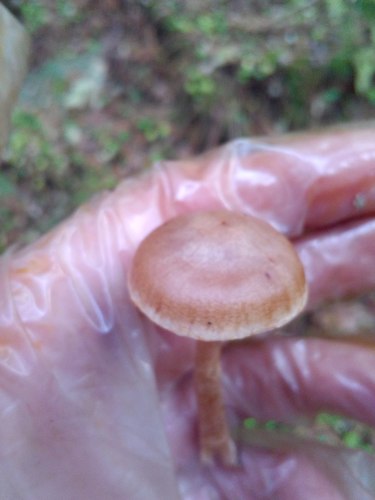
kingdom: Fungi
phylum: Basidiomycota
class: Agaricomycetes
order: Agaricales
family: Cortinariaceae
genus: Cortinarius
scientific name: Cortinarius
